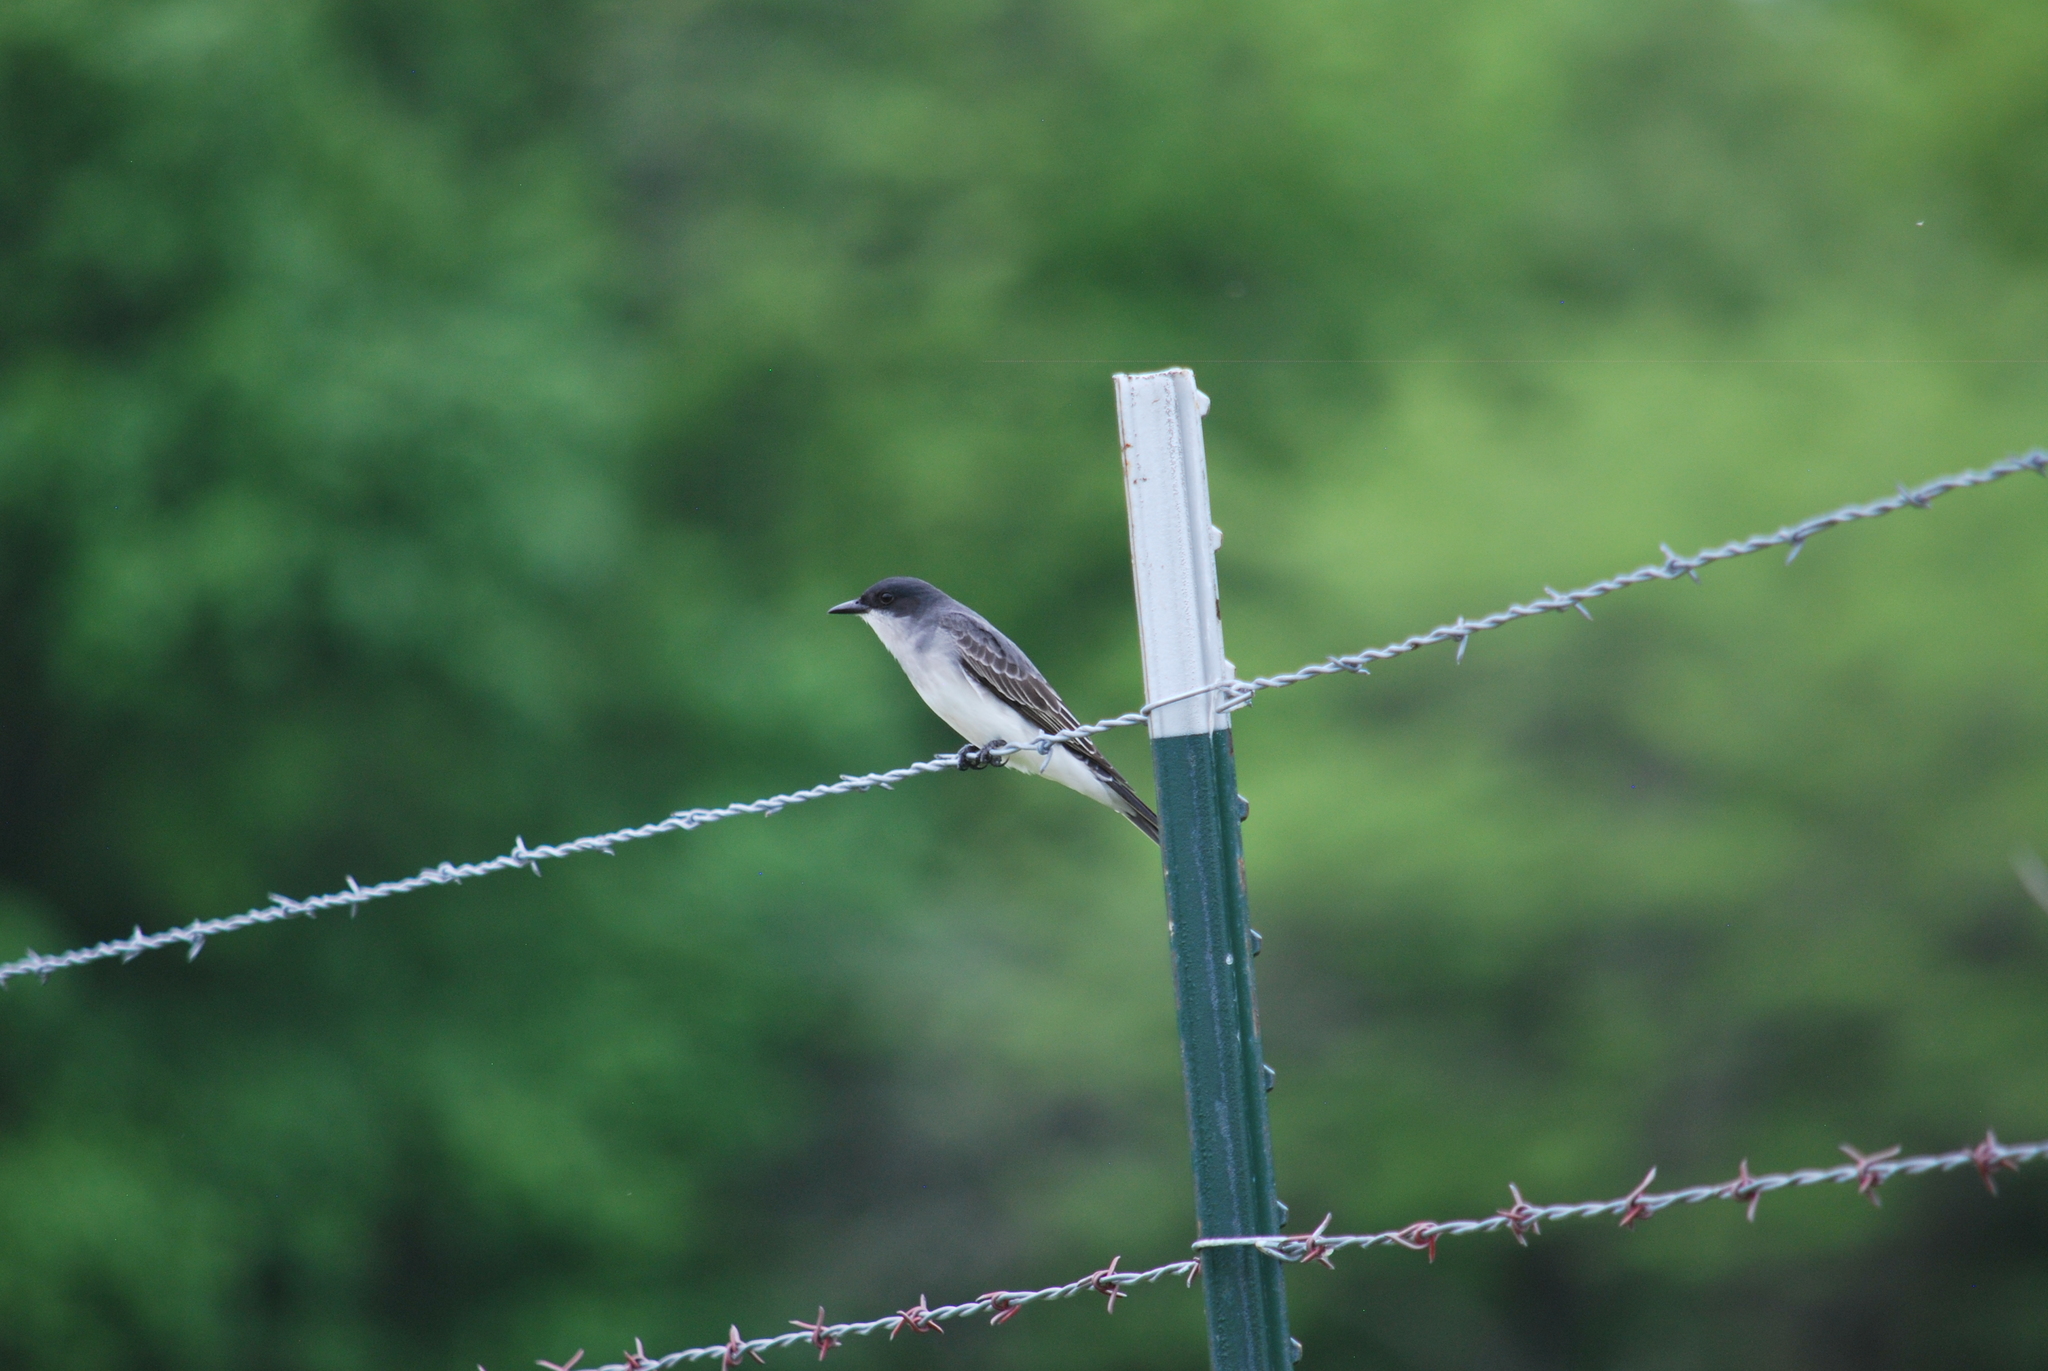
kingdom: Animalia
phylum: Chordata
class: Aves
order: Passeriformes
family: Tyrannidae
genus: Tyrannus
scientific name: Tyrannus tyrannus
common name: Eastern kingbird
